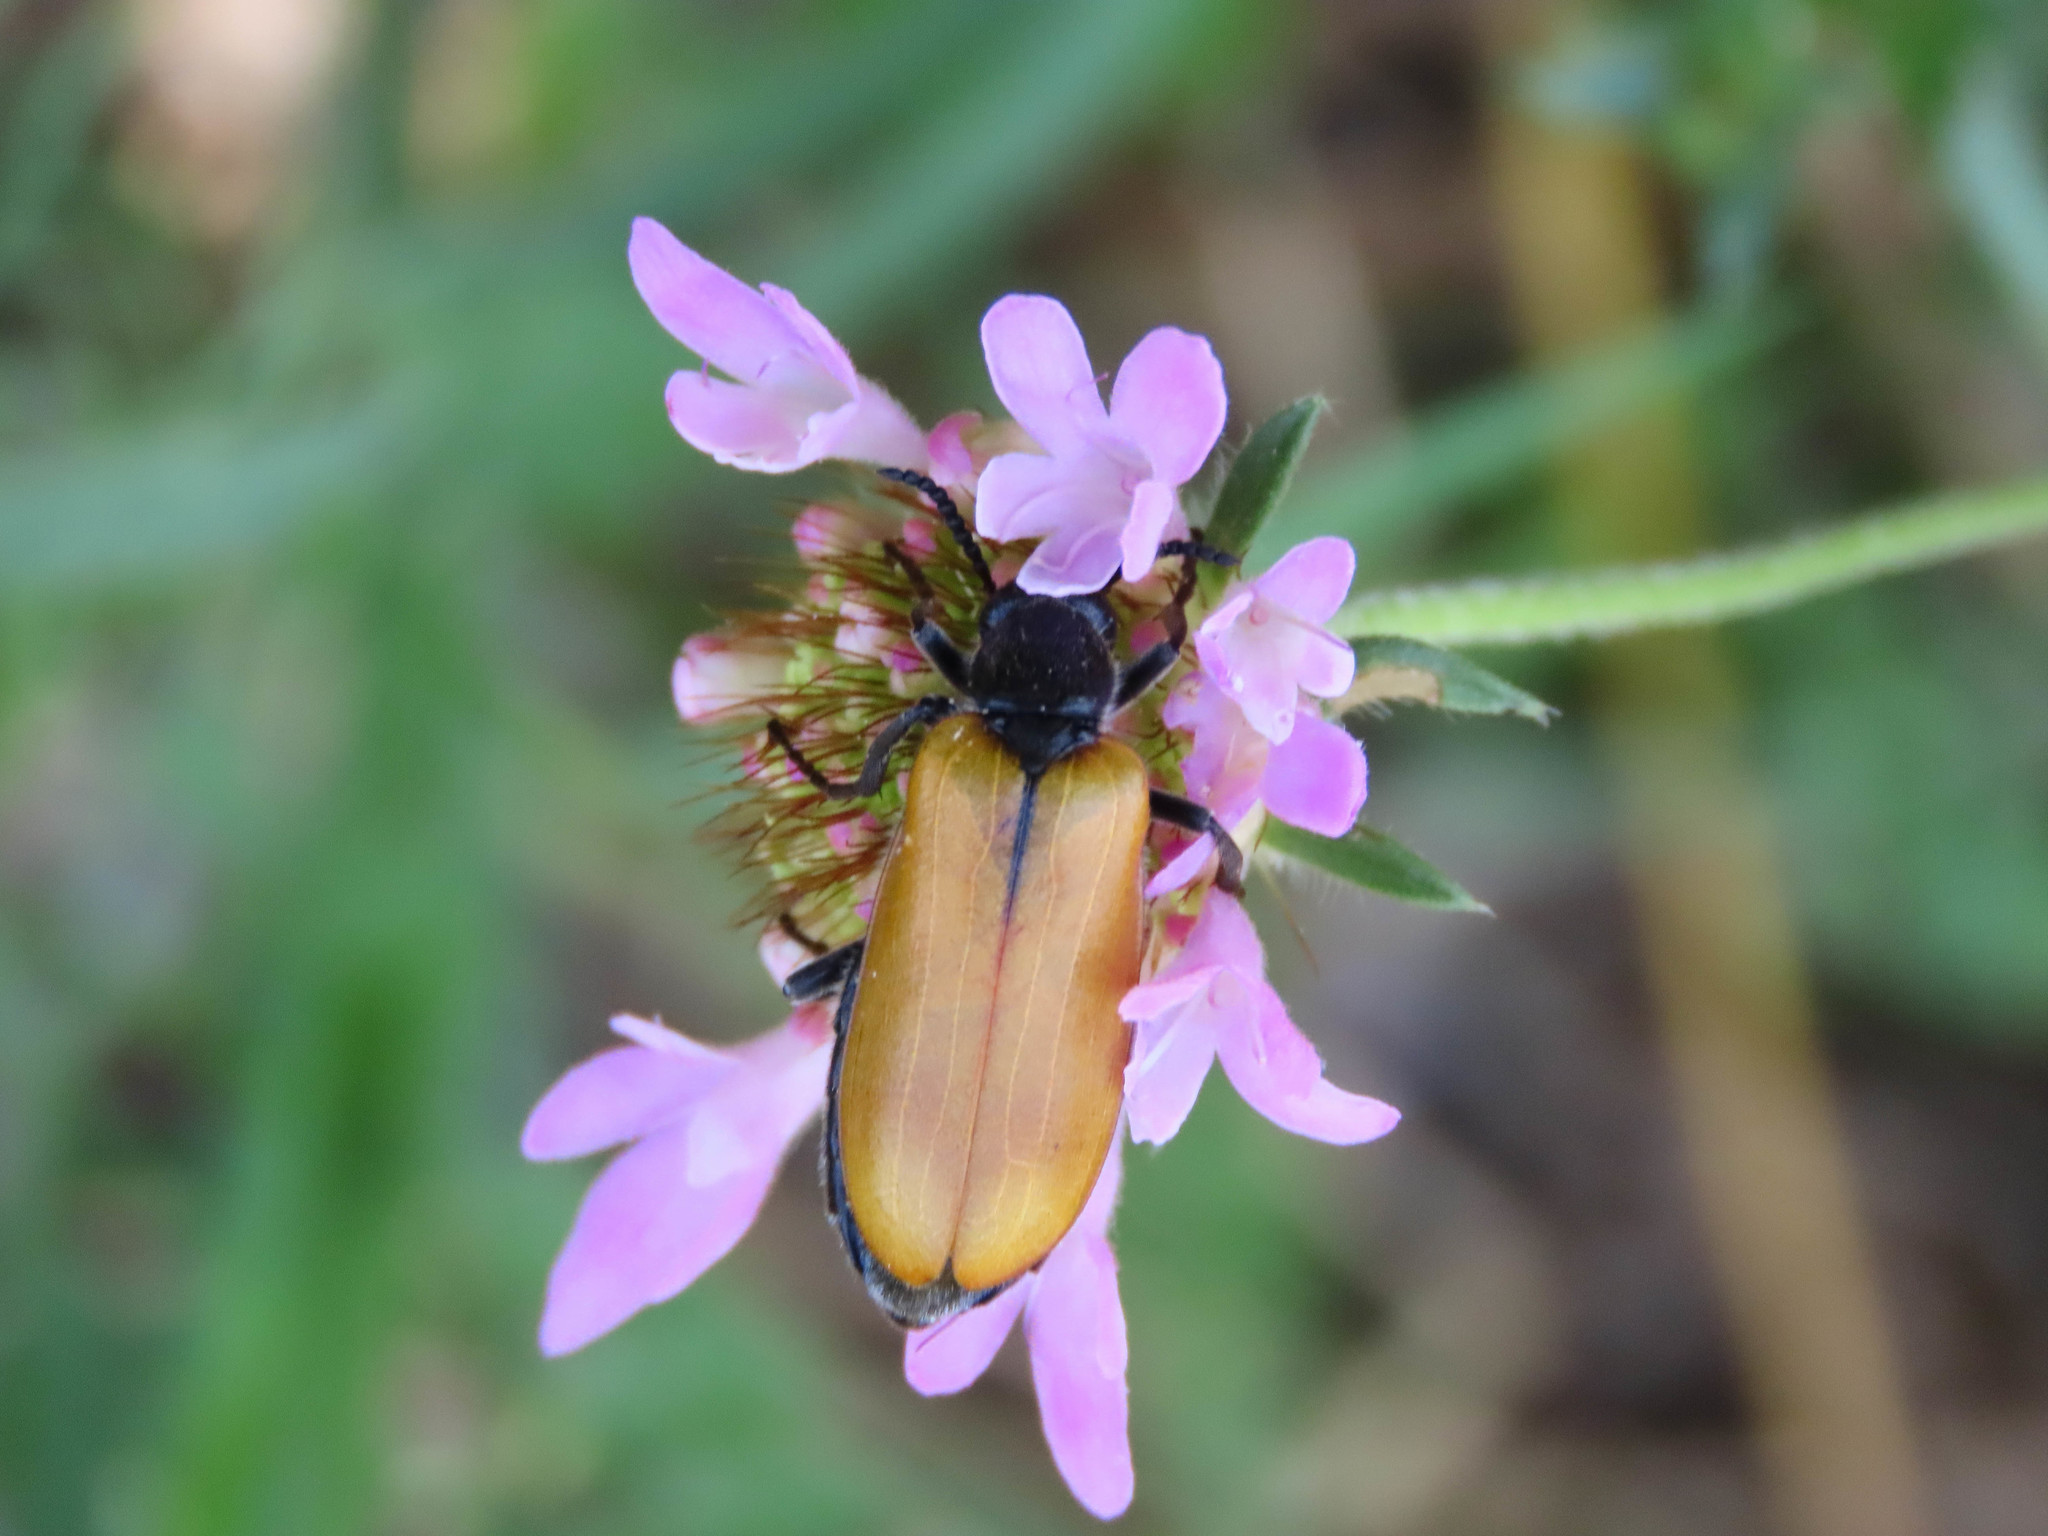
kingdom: Animalia
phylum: Arthropoda
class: Insecta
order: Coleoptera
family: Meloidae
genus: Lydus
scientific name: Lydus trimaculatus
